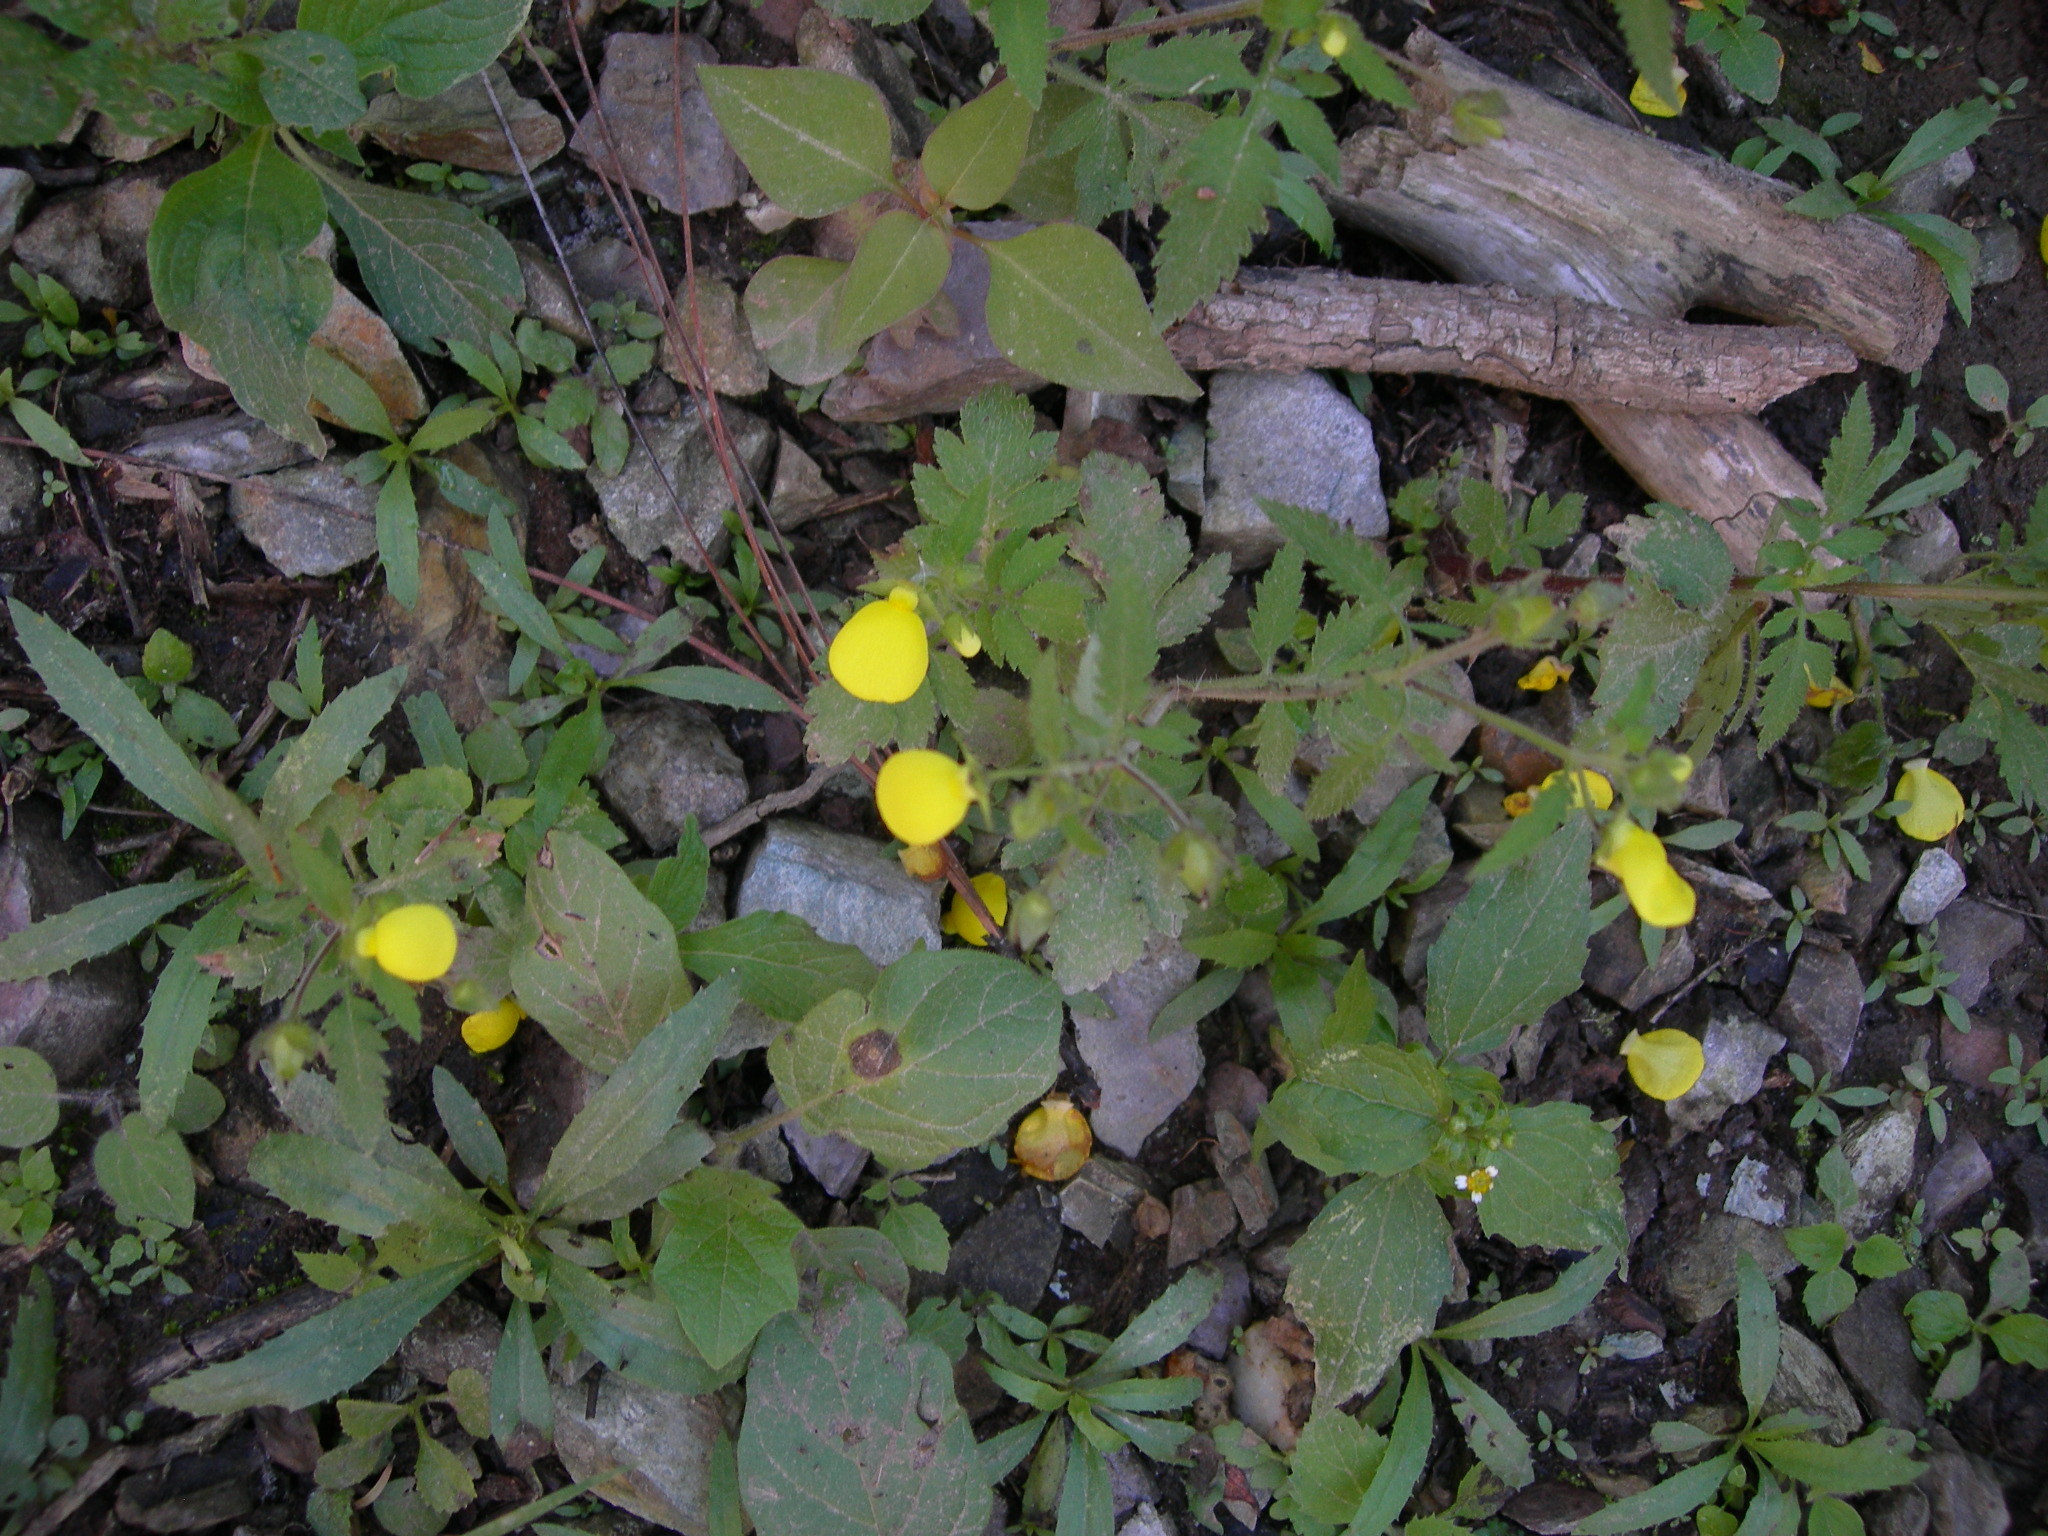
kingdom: Plantae
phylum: Tracheophyta
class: Magnoliopsida
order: Lamiales
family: Calceolariaceae
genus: Calceolaria
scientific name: Calceolaria tripartita
